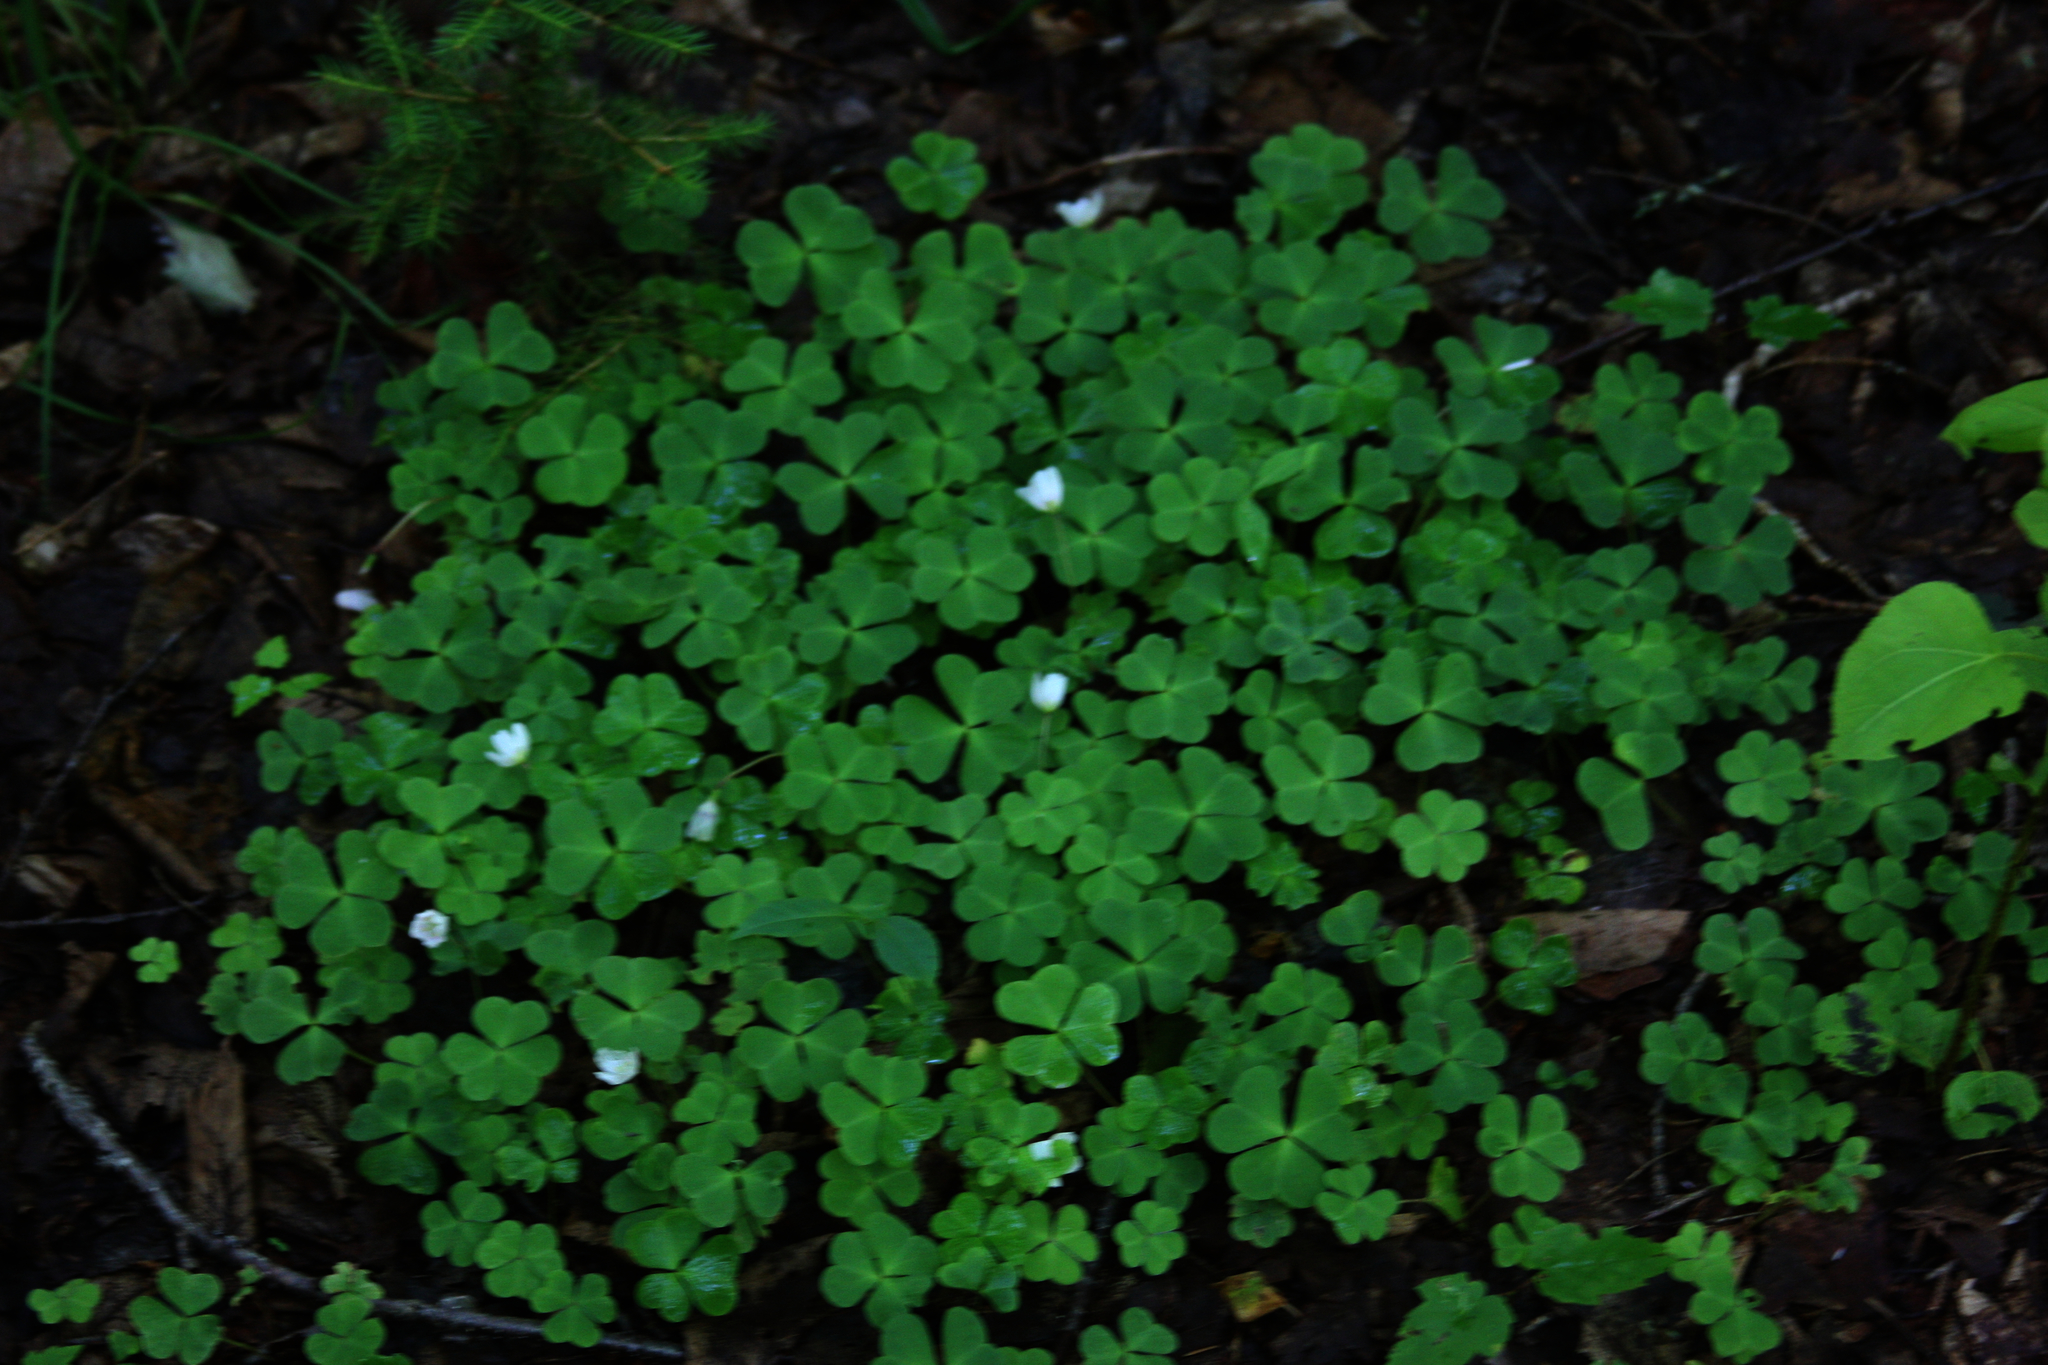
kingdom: Plantae
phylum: Tracheophyta
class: Magnoliopsida
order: Oxalidales
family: Oxalidaceae
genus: Oxalis
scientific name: Oxalis montana
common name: American wood-sorrel
